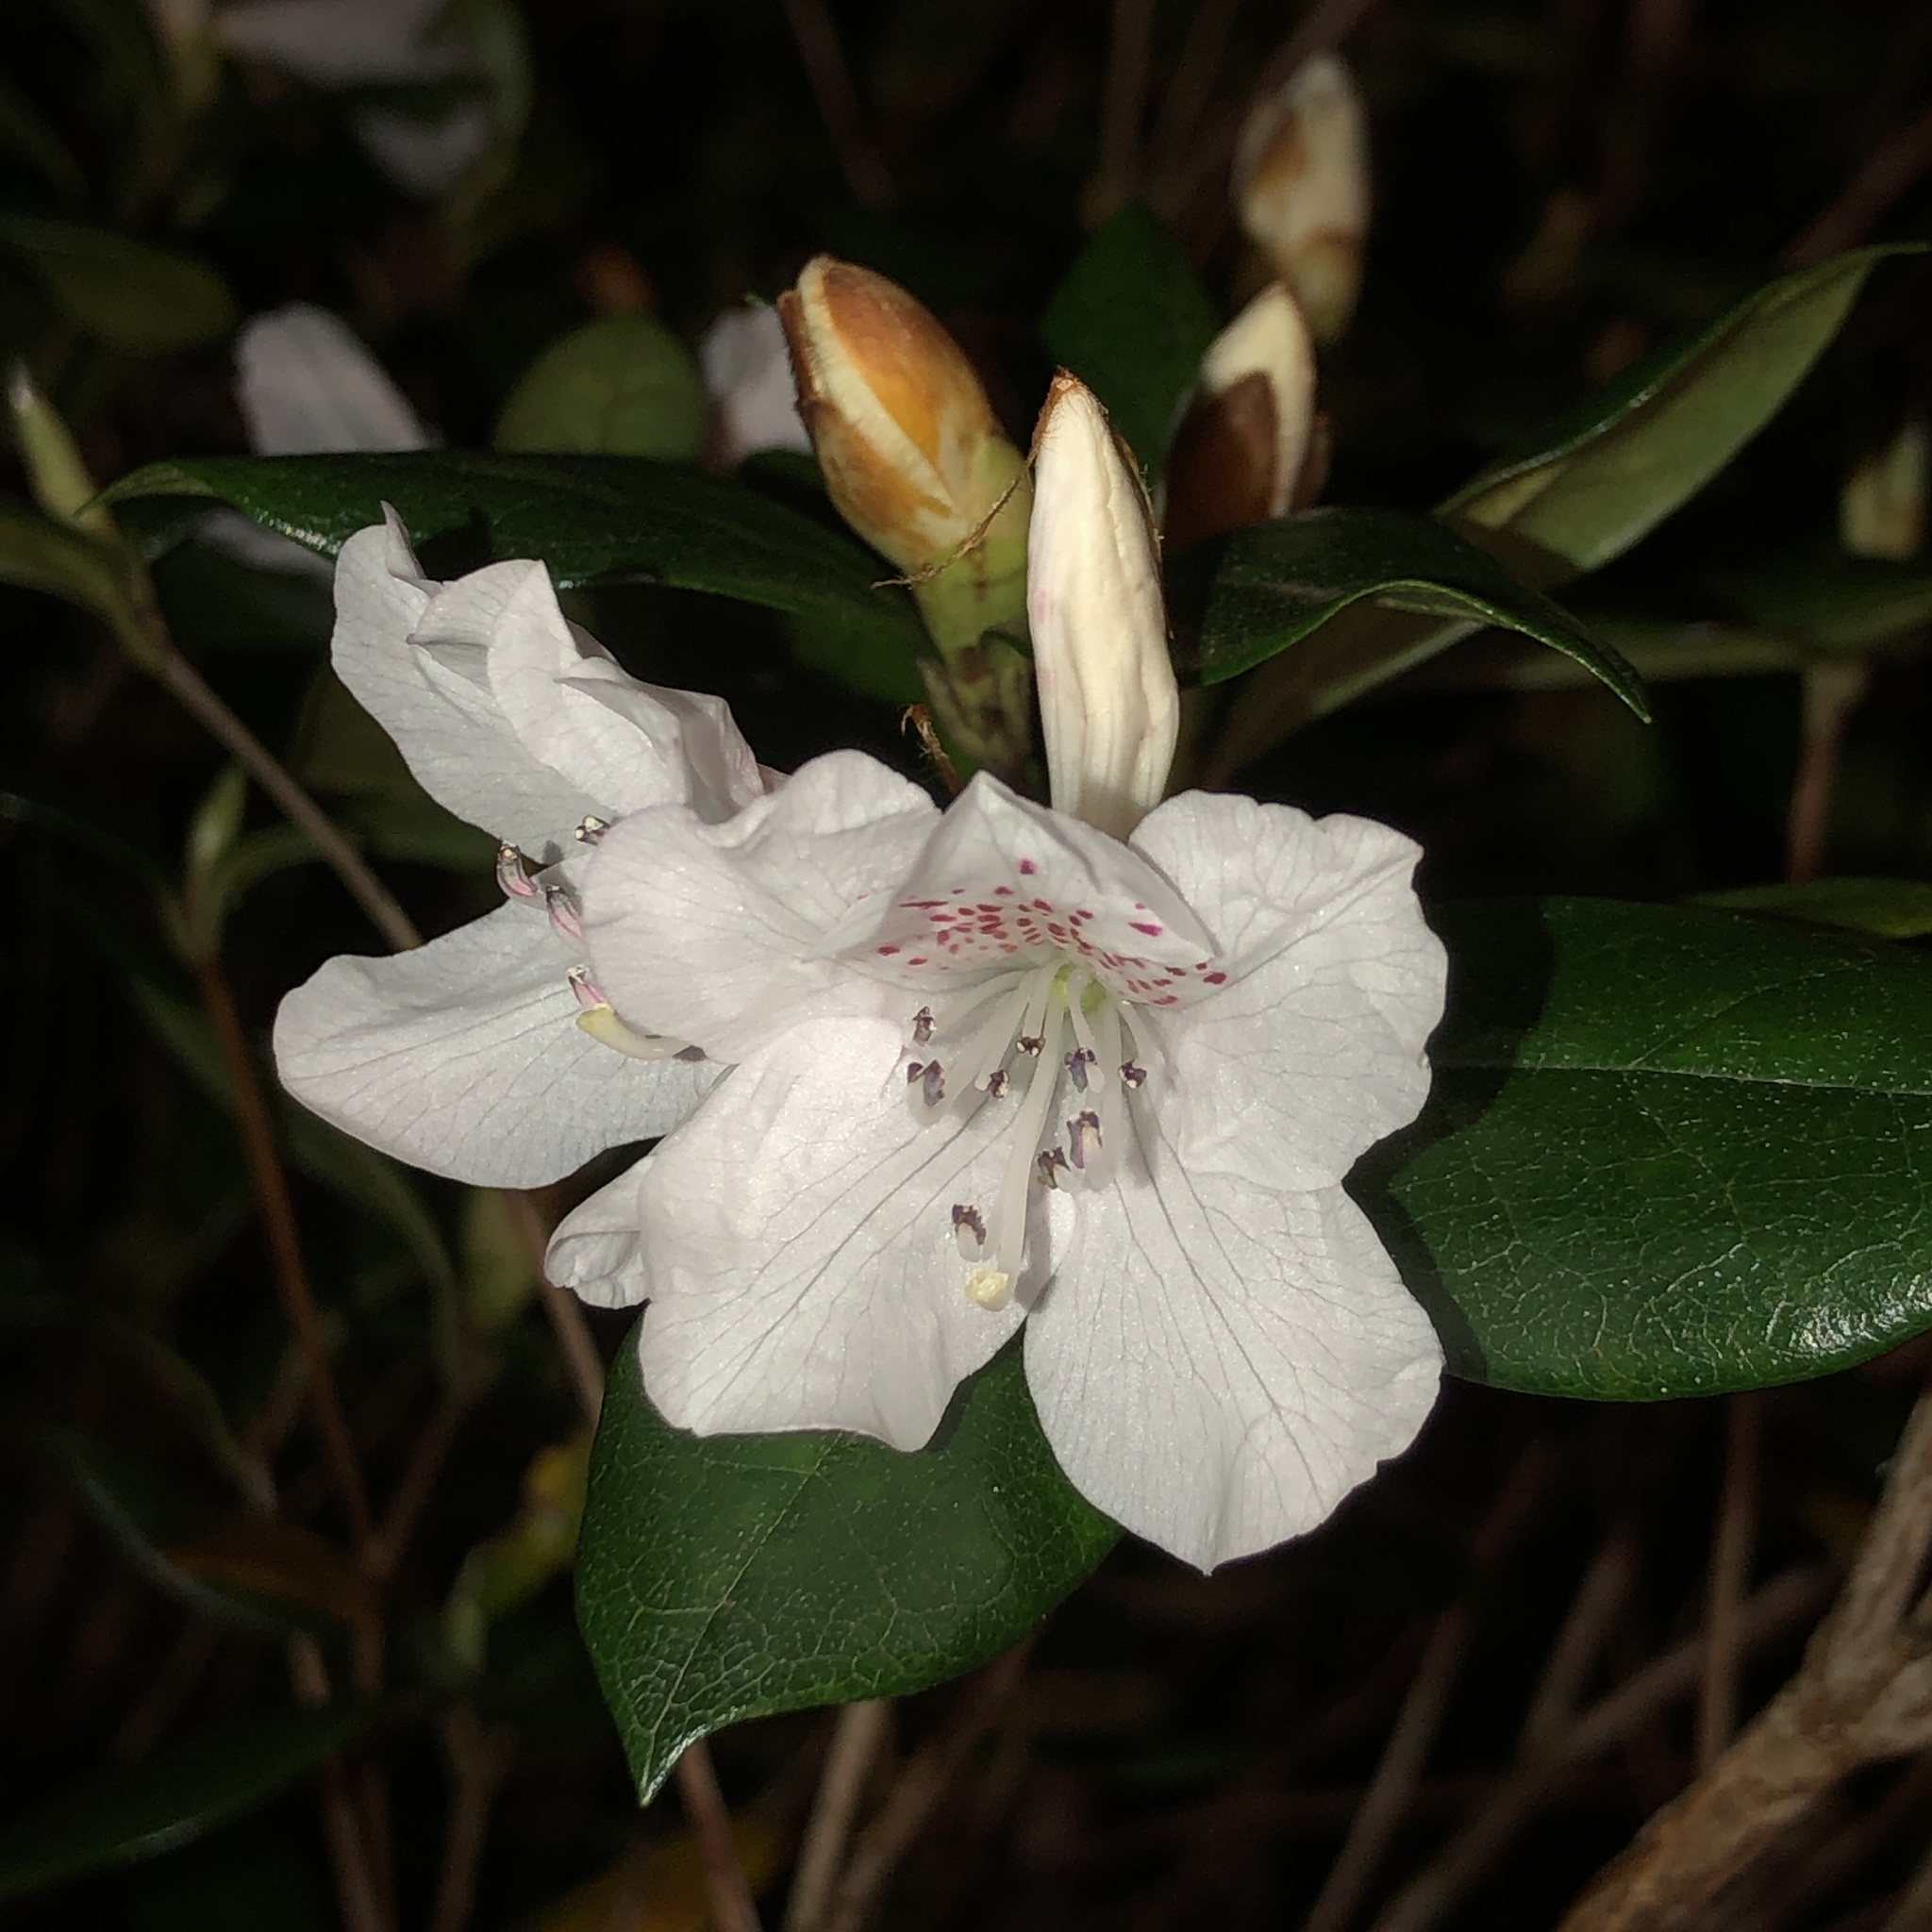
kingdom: Plantae
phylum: Tracheophyta
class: Magnoliopsida
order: Ericales
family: Ericaceae
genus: Rhododendron
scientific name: Rhododendron tashiroi
